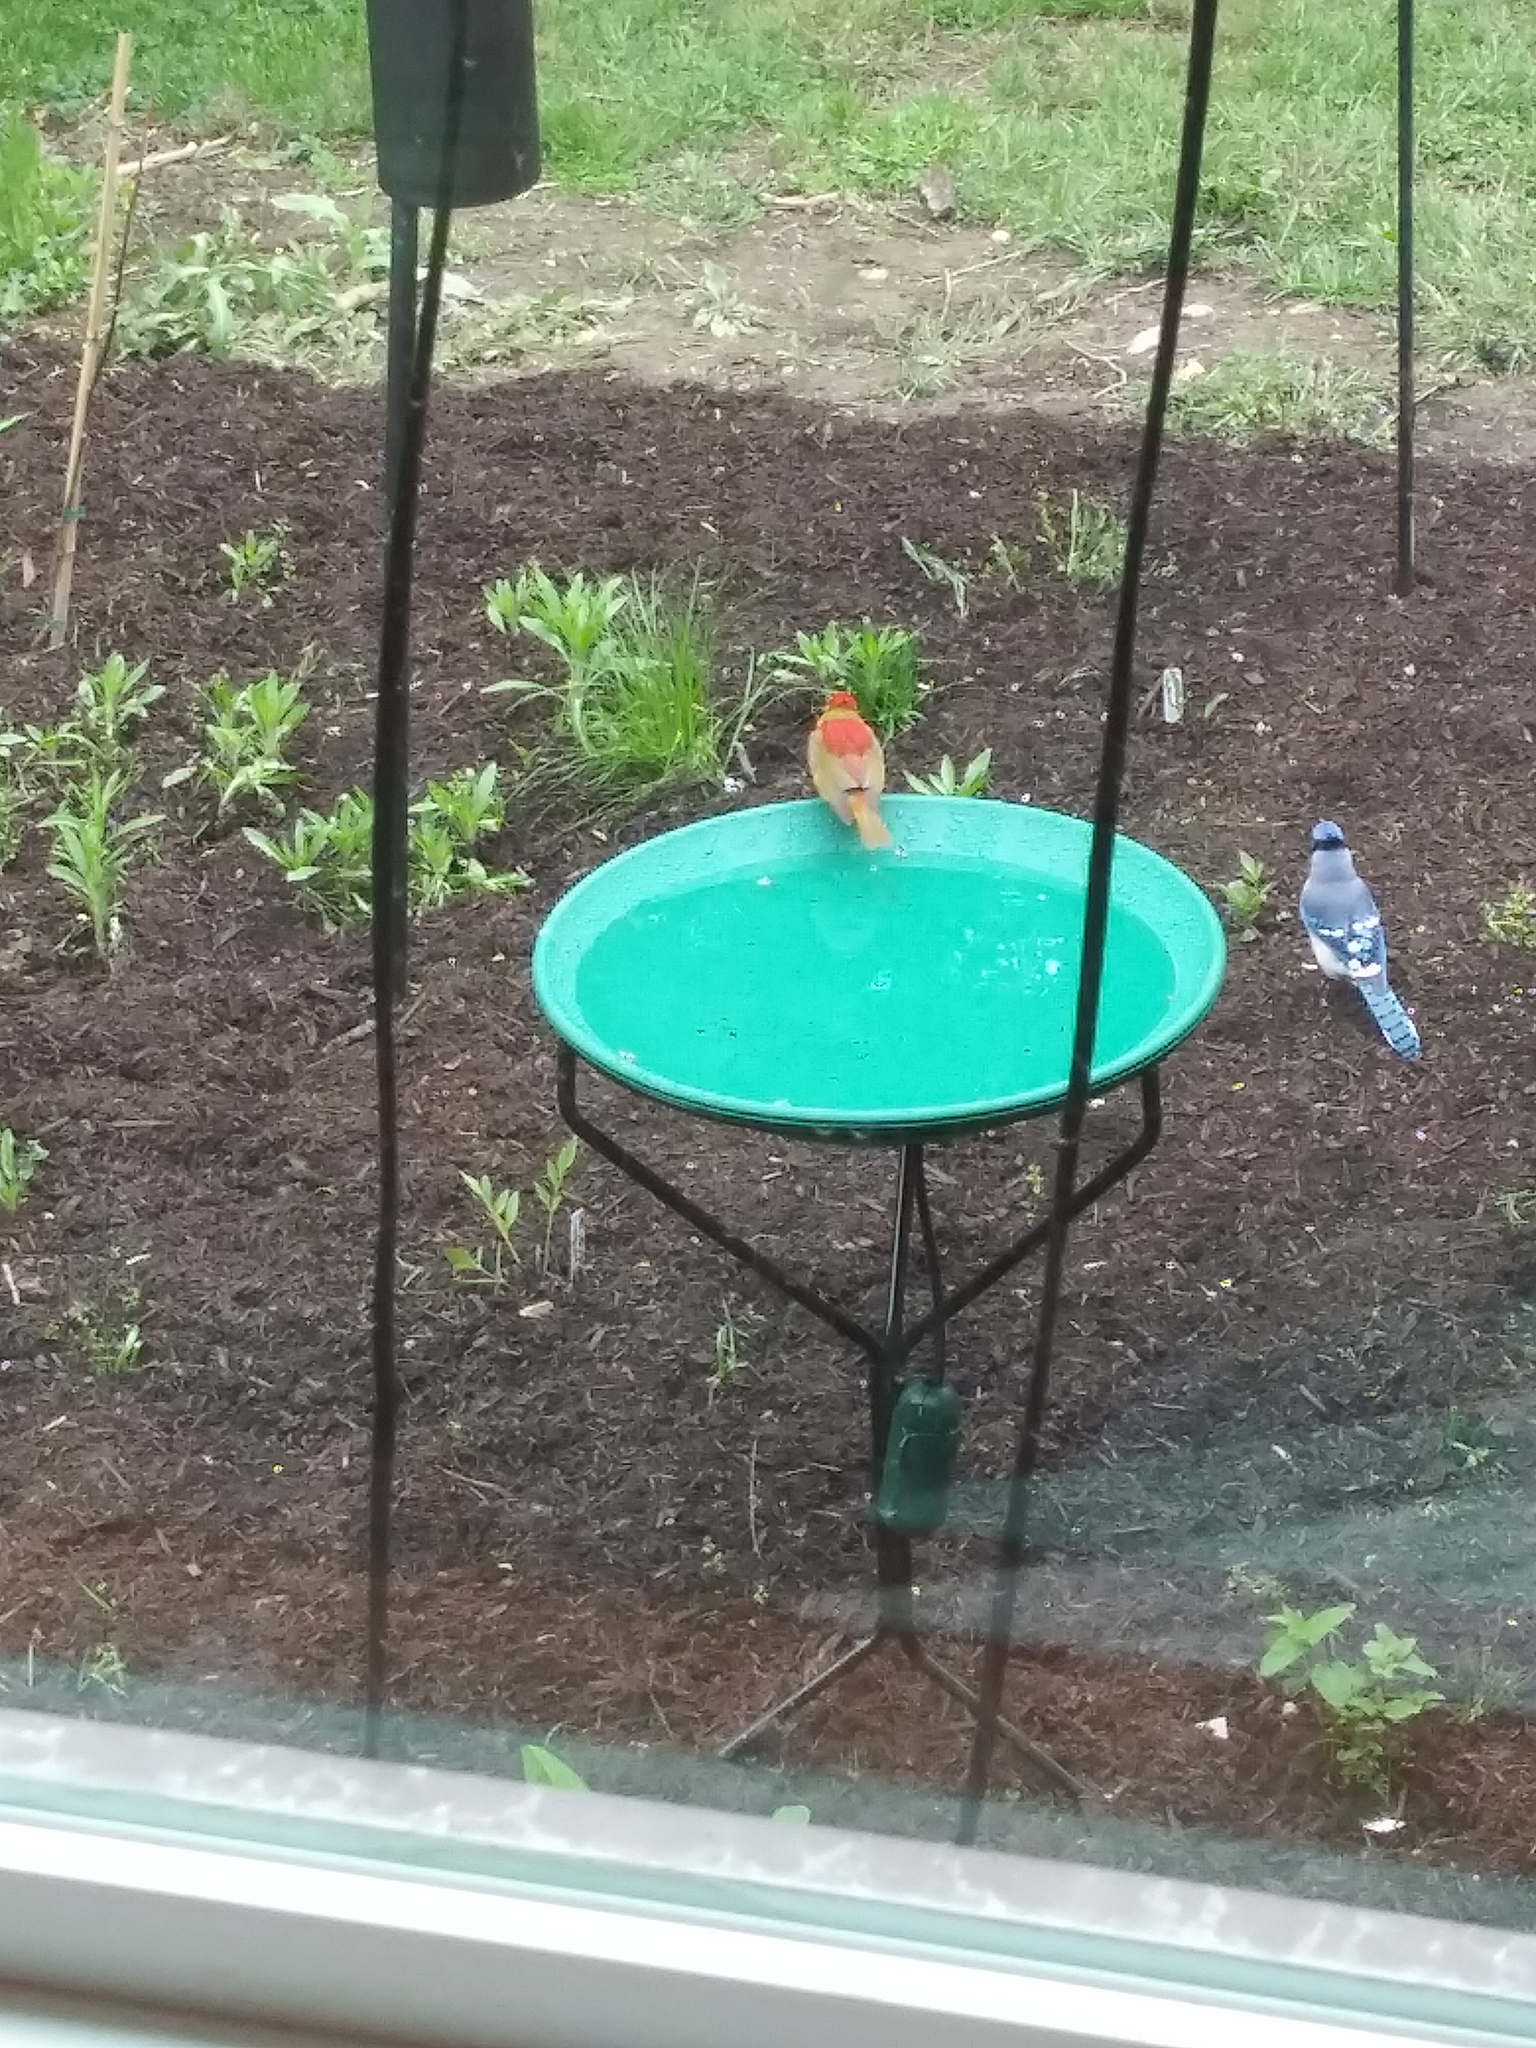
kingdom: Animalia
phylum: Chordata
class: Aves
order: Passeriformes
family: Corvidae
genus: Cyanocitta
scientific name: Cyanocitta cristata
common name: Blue jay
